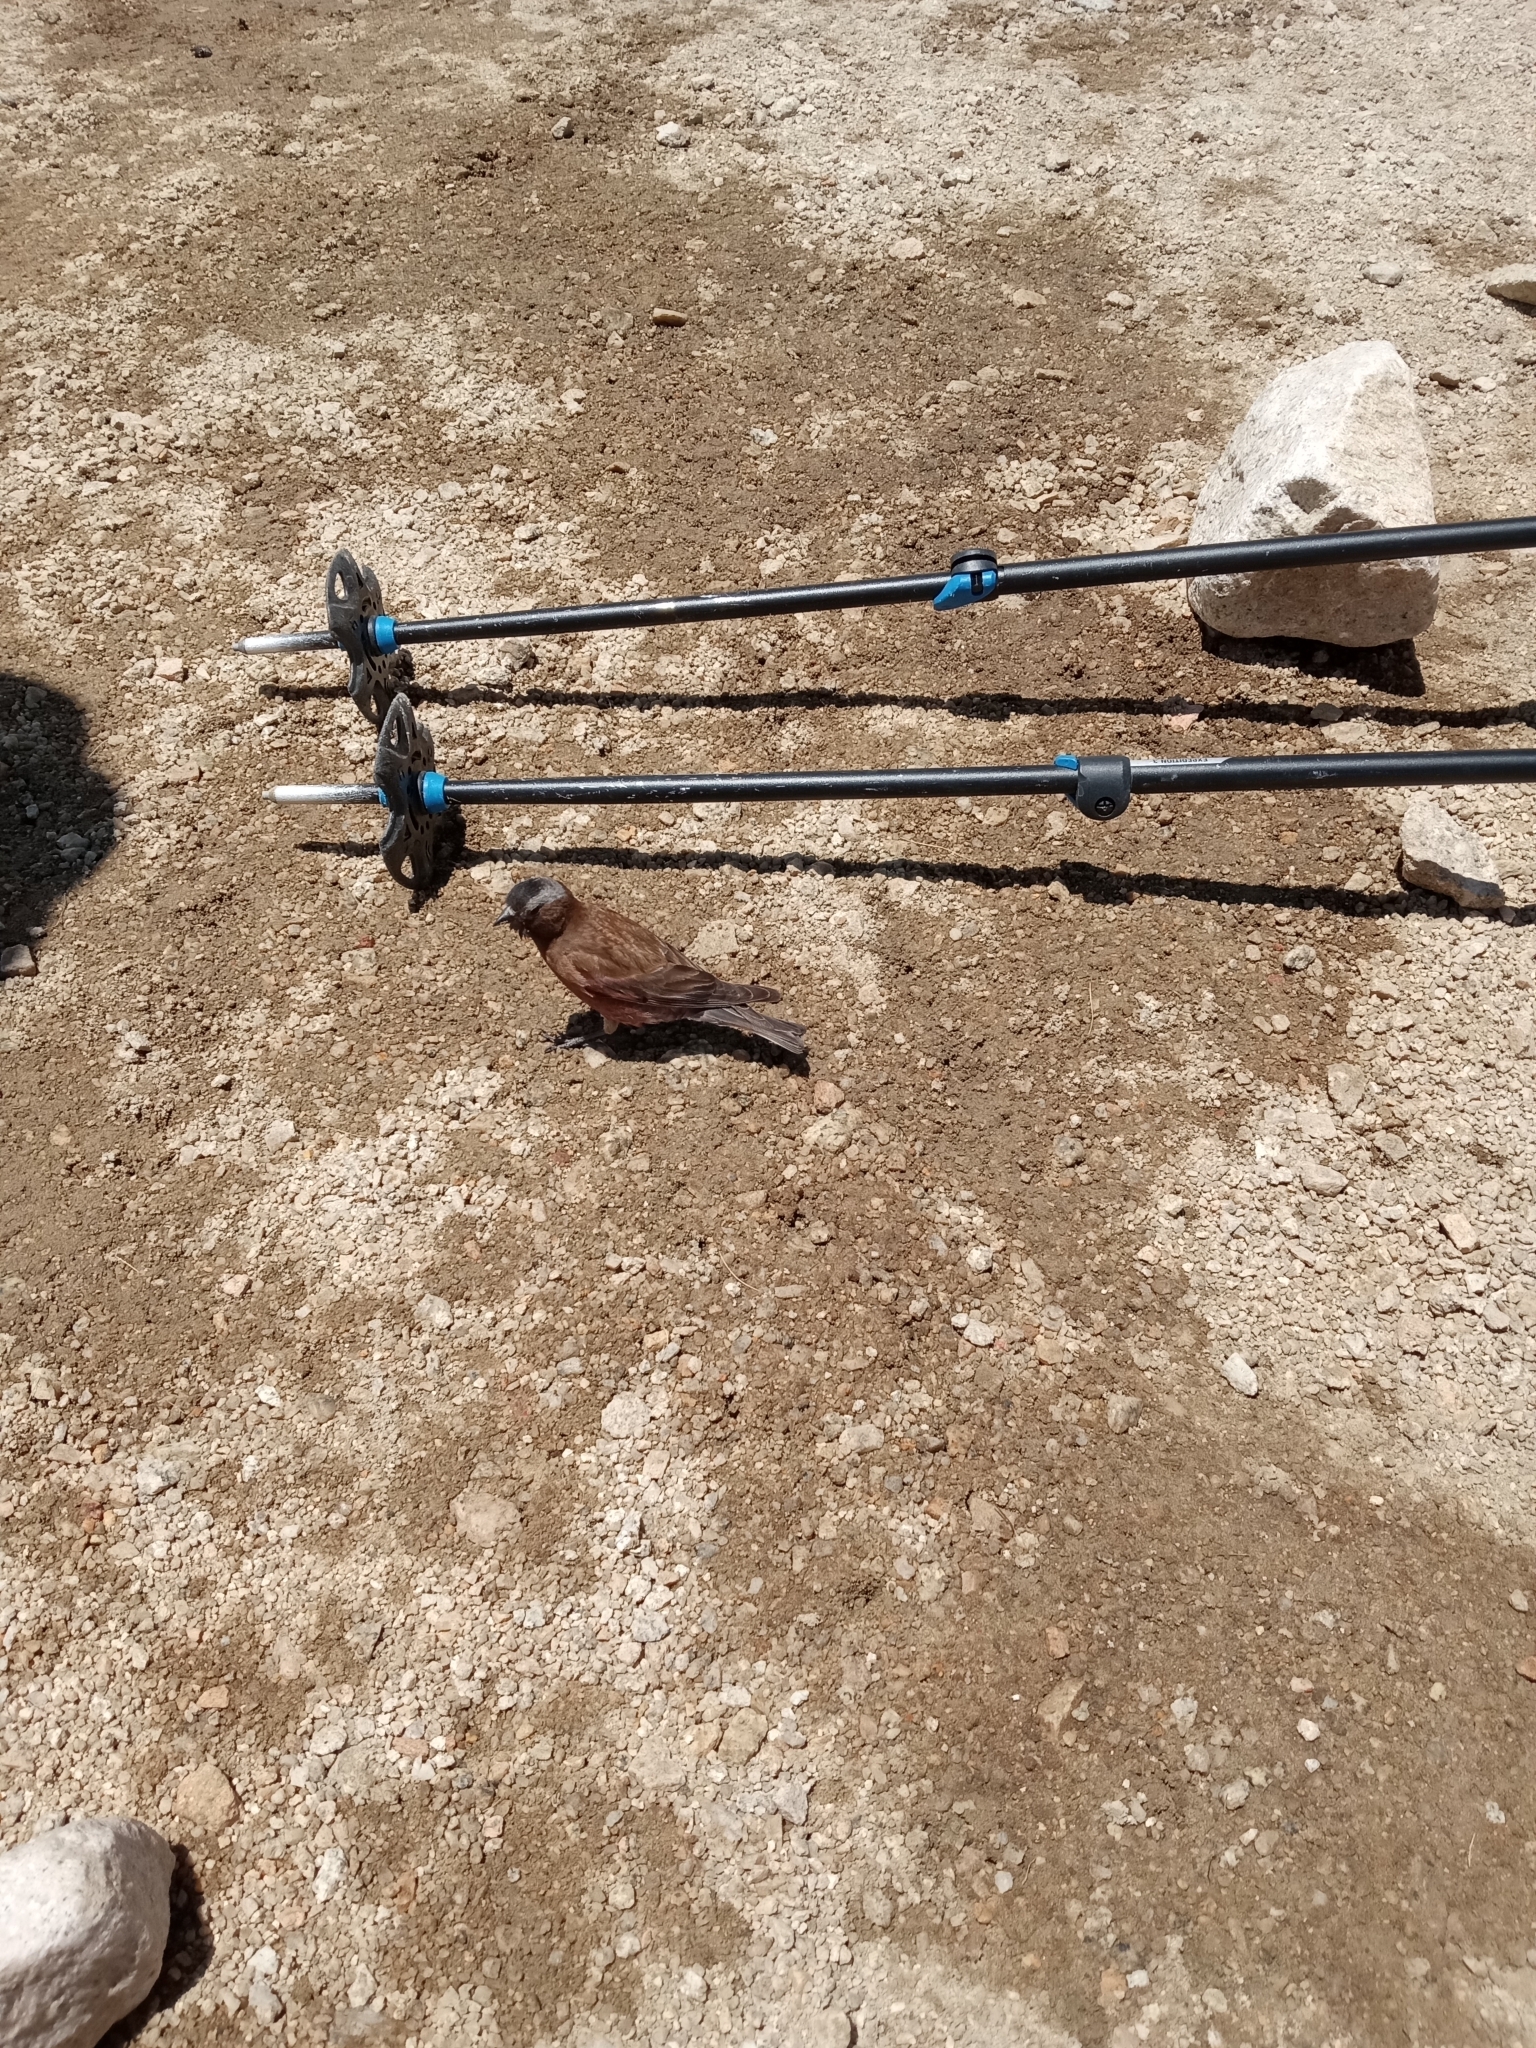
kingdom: Animalia
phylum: Chordata
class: Aves
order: Passeriformes
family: Fringillidae
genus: Leucosticte
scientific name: Leucosticte tephrocotis
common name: Gray-crowned rosy-finch
